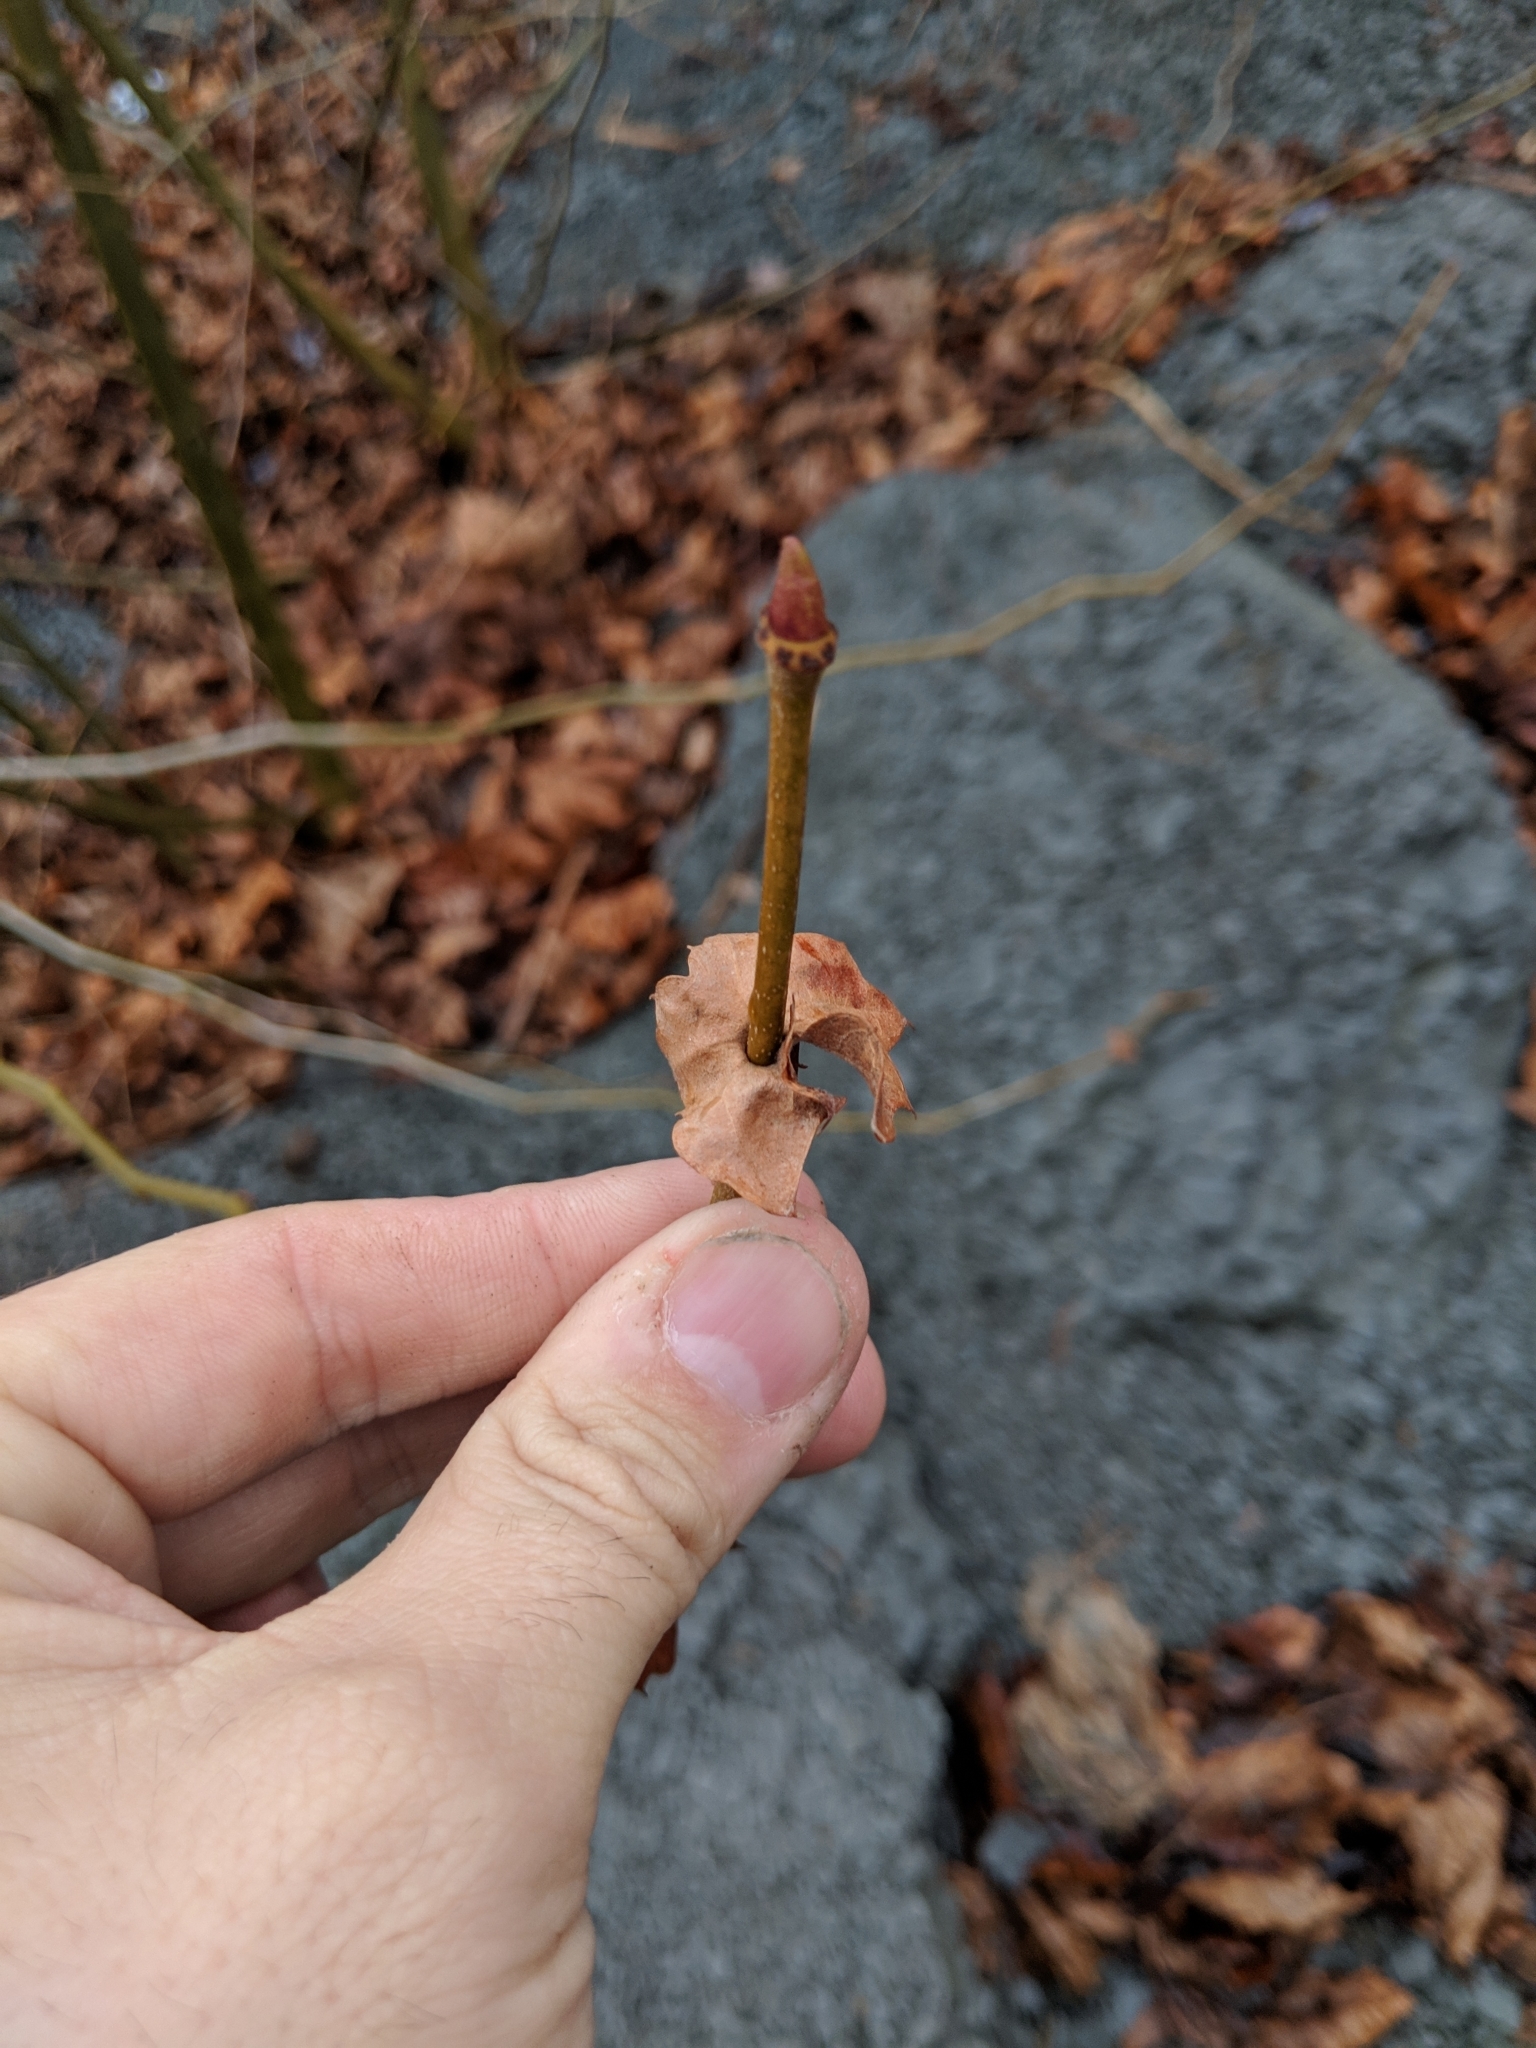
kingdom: Plantae
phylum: Tracheophyta
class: Magnoliopsida
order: Proteales
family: Platanaceae
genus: Platanus
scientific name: Platanus occidentalis
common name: American sycamore
